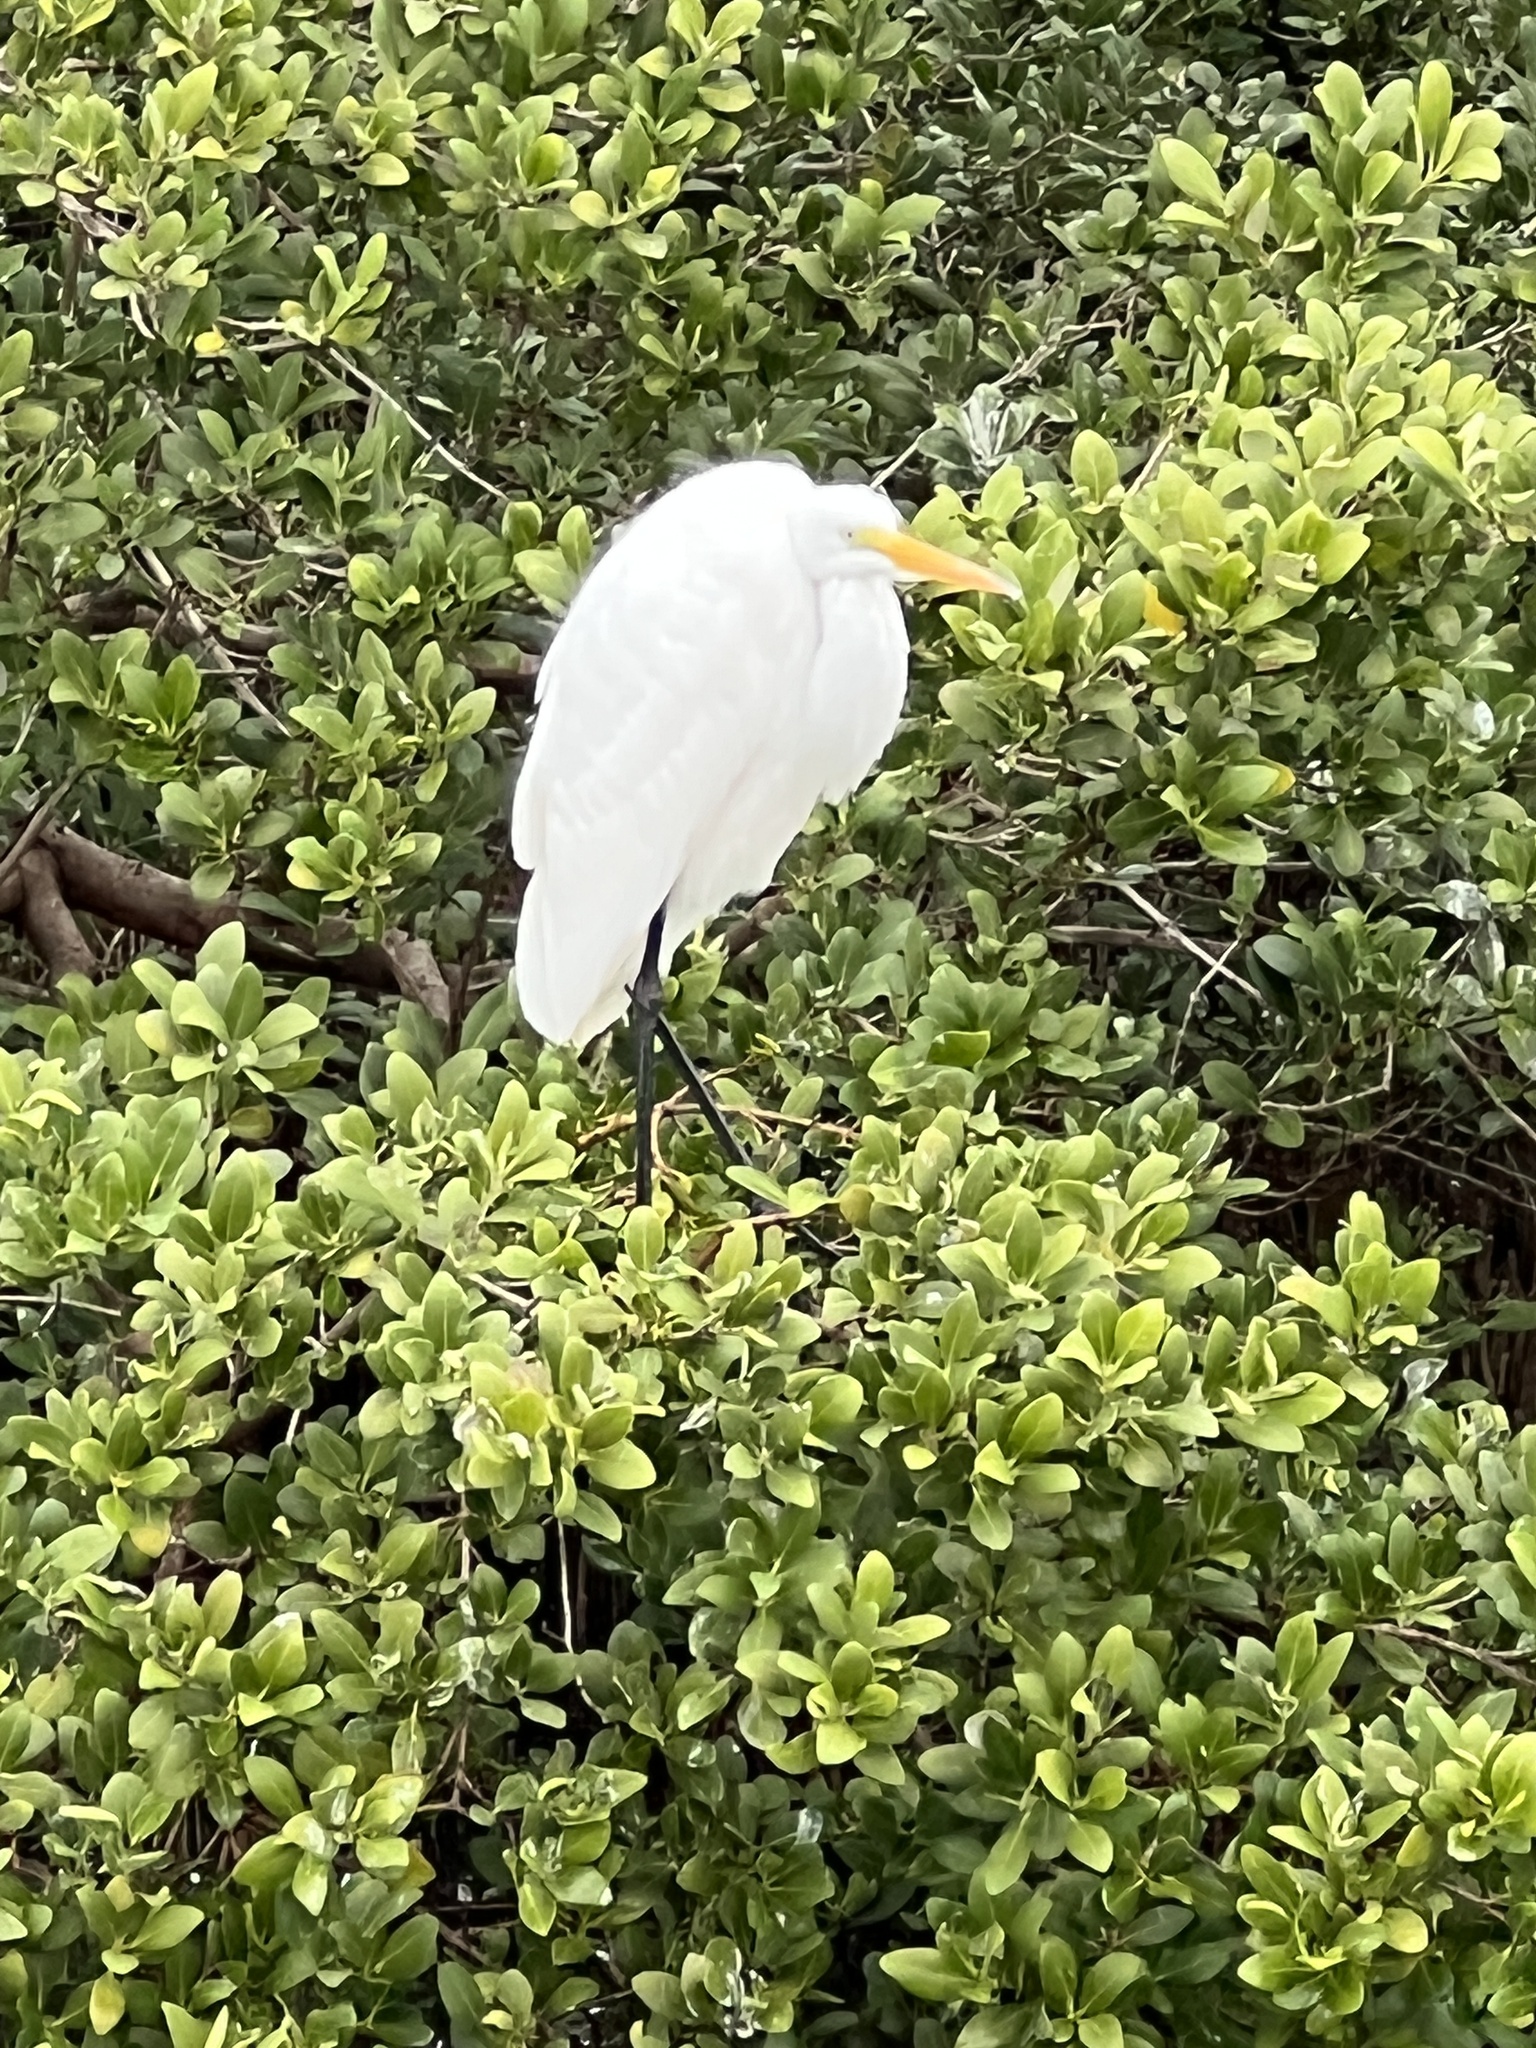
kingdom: Animalia
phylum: Chordata
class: Aves
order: Pelecaniformes
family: Ardeidae
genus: Ardea
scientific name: Ardea alba
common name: Great egret
